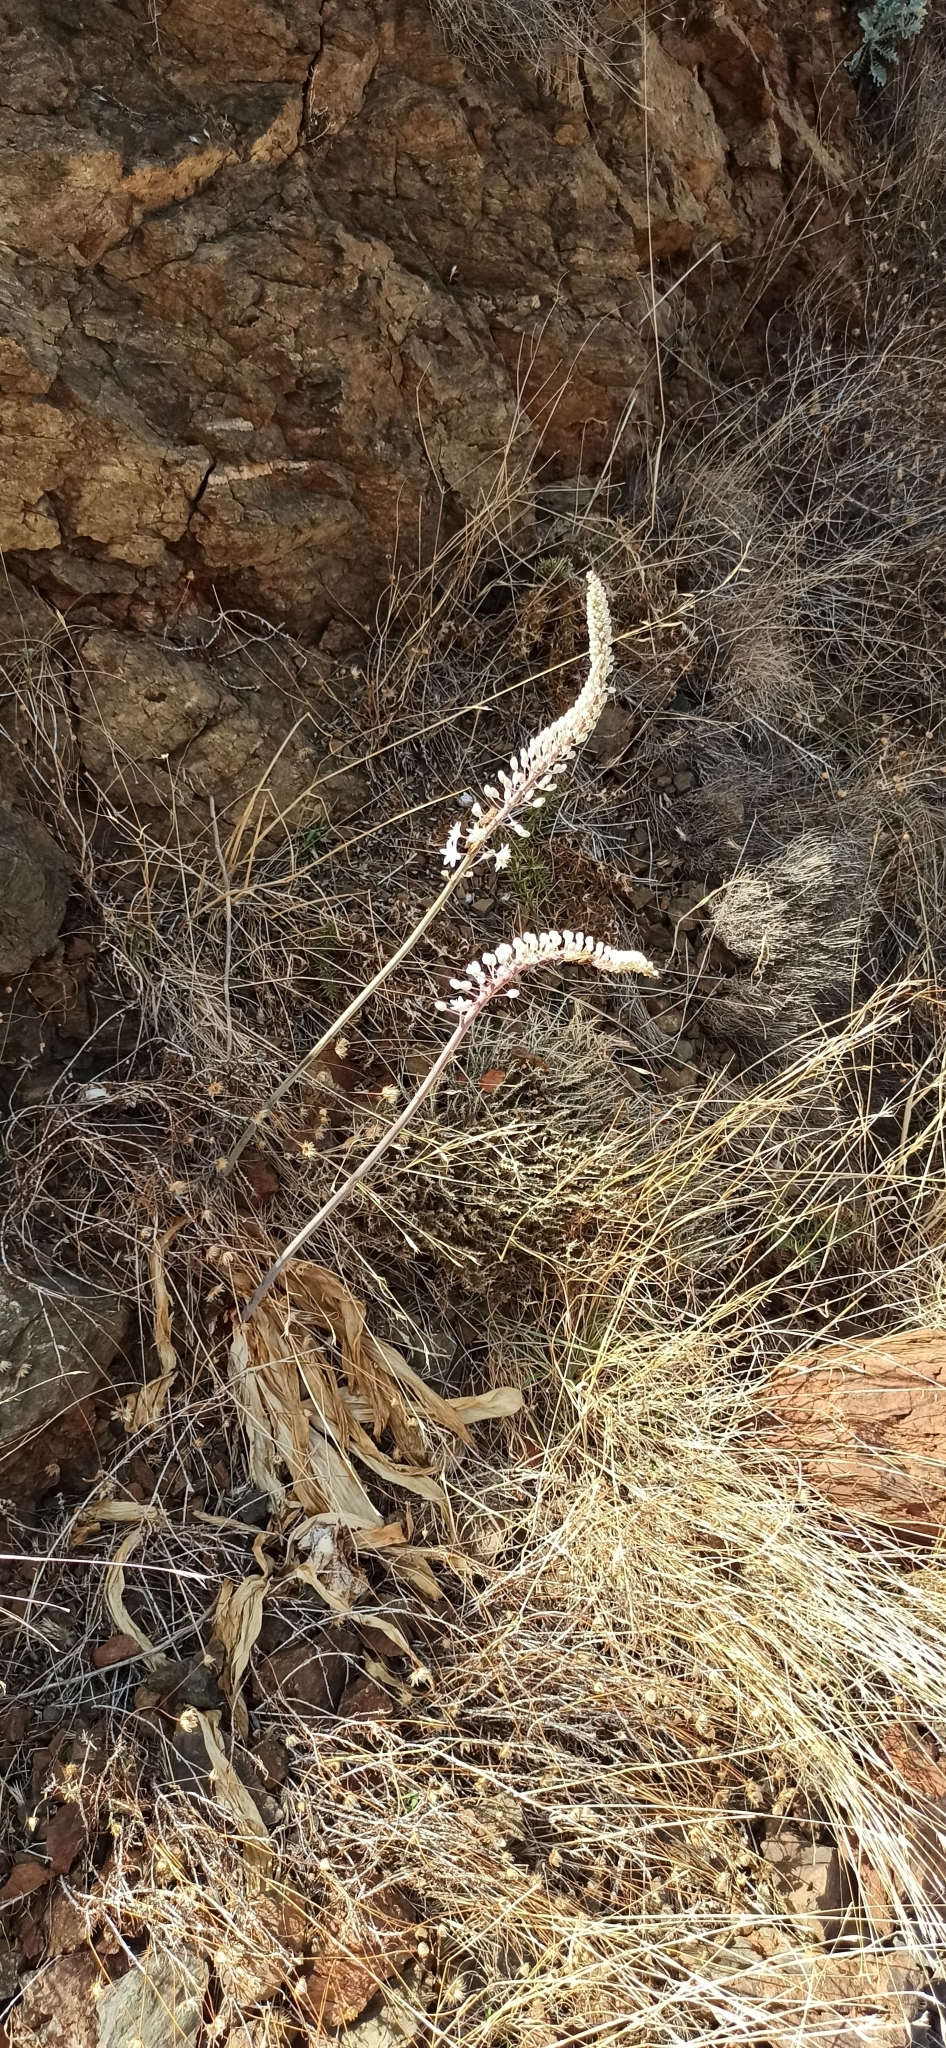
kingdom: Plantae
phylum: Tracheophyta
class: Liliopsida
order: Asparagales
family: Asparagaceae
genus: Drimia
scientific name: Drimia numidica
